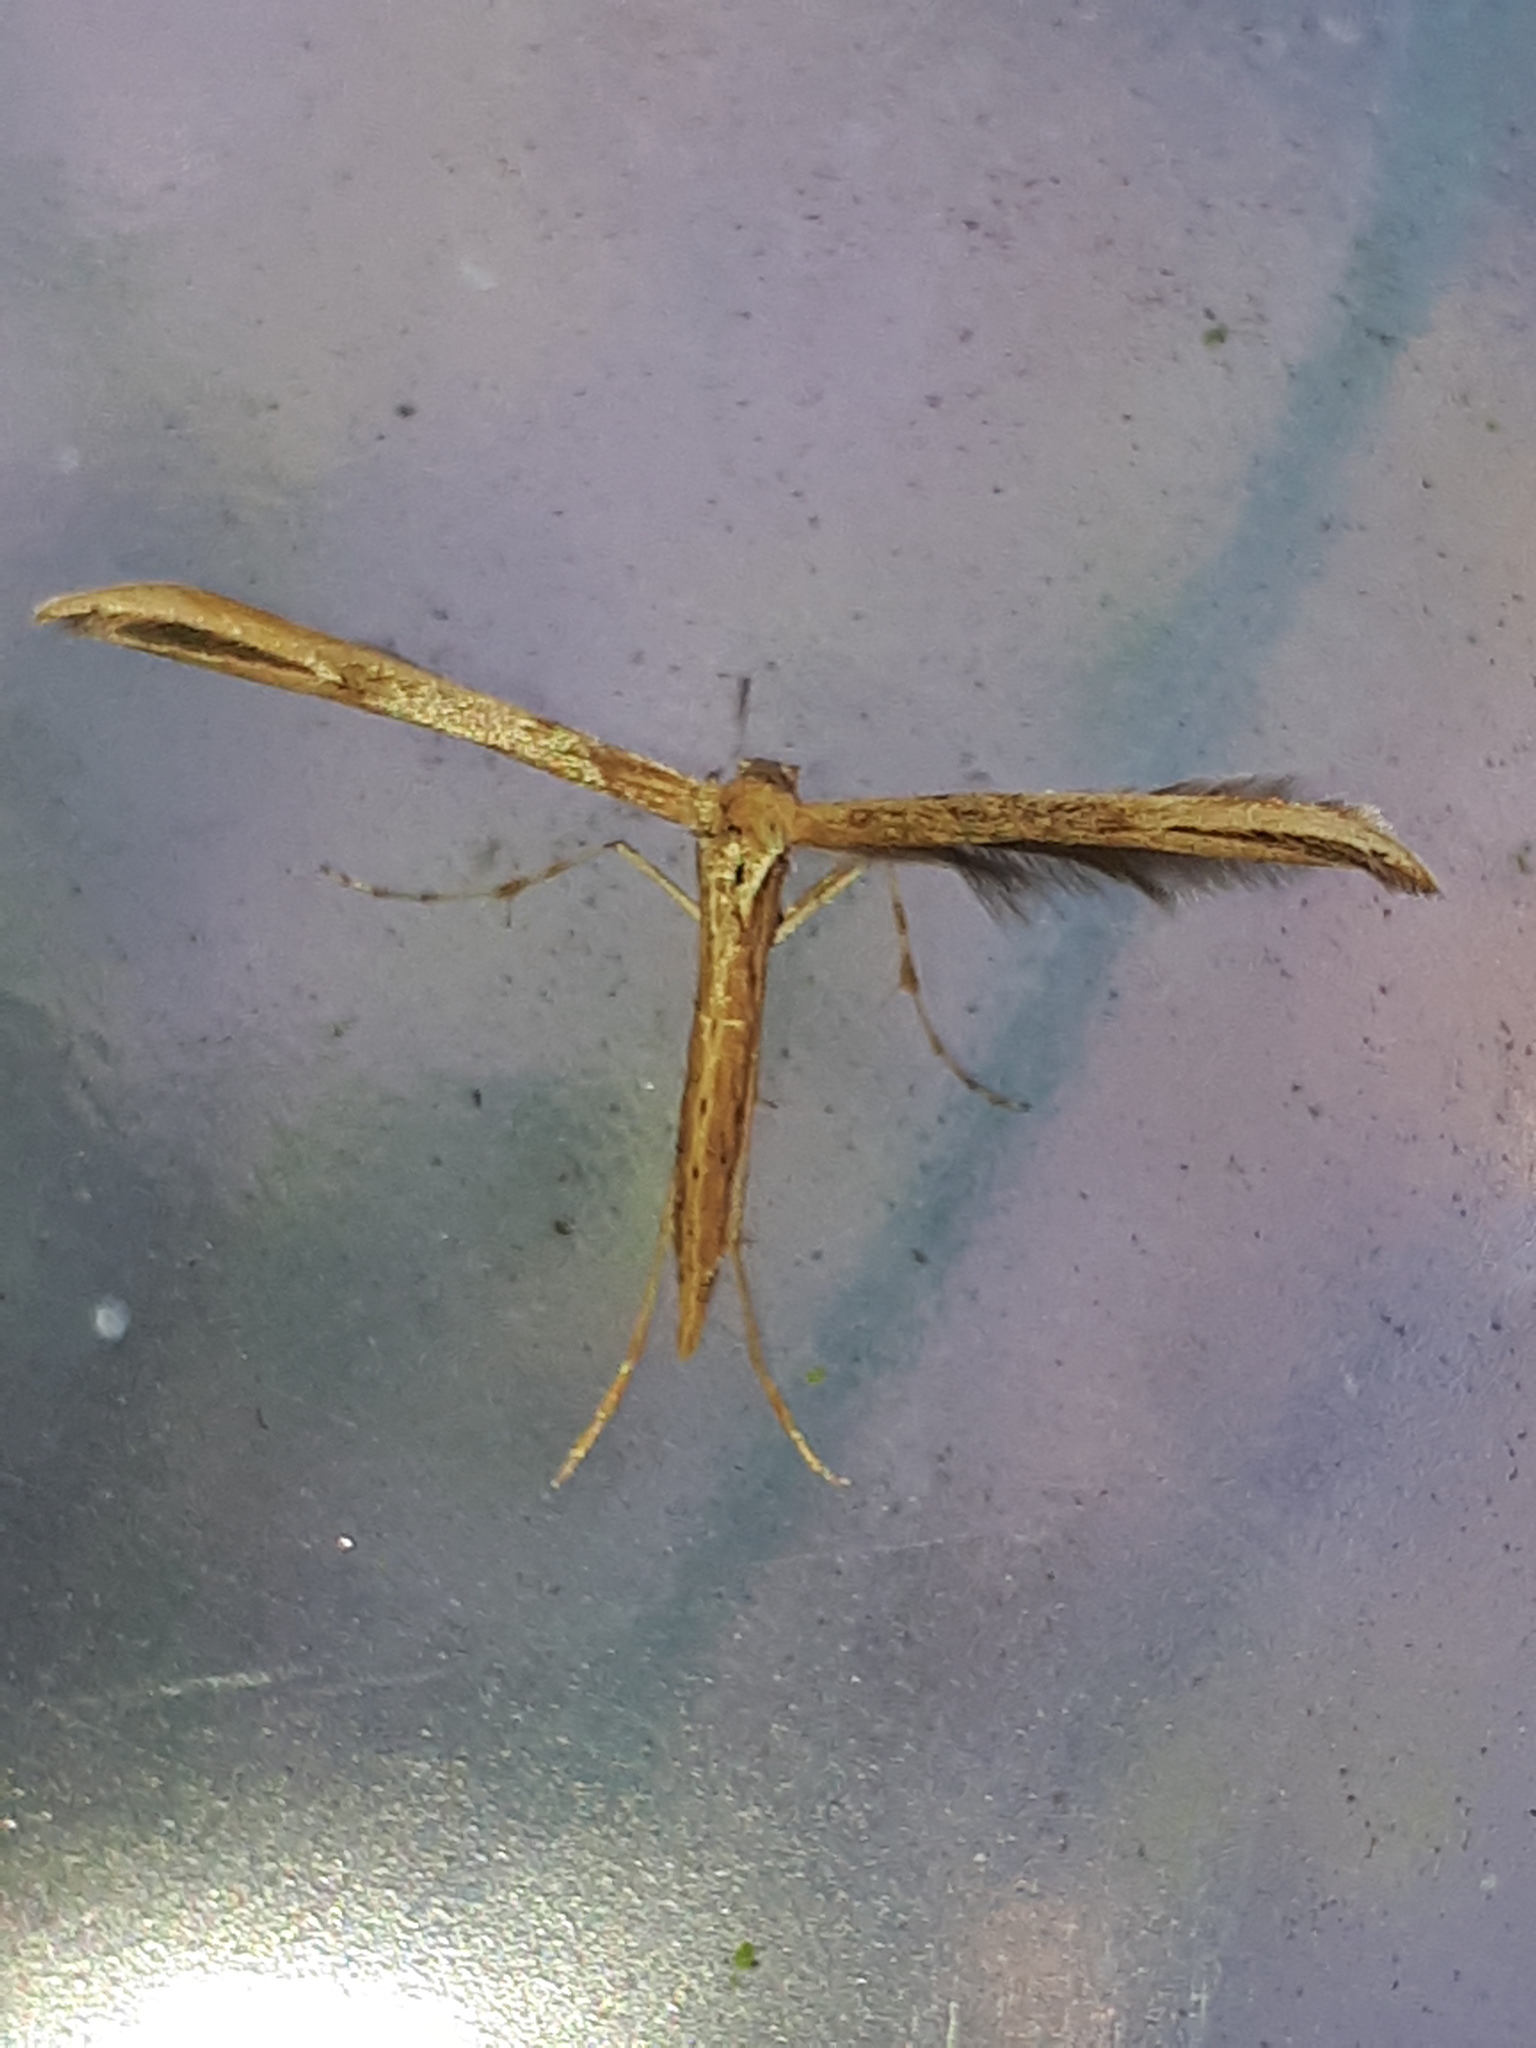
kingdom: Animalia
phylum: Arthropoda
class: Insecta
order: Lepidoptera
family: Pterophoridae
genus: Emmelina
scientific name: Emmelina monodactyla
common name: Common plume
